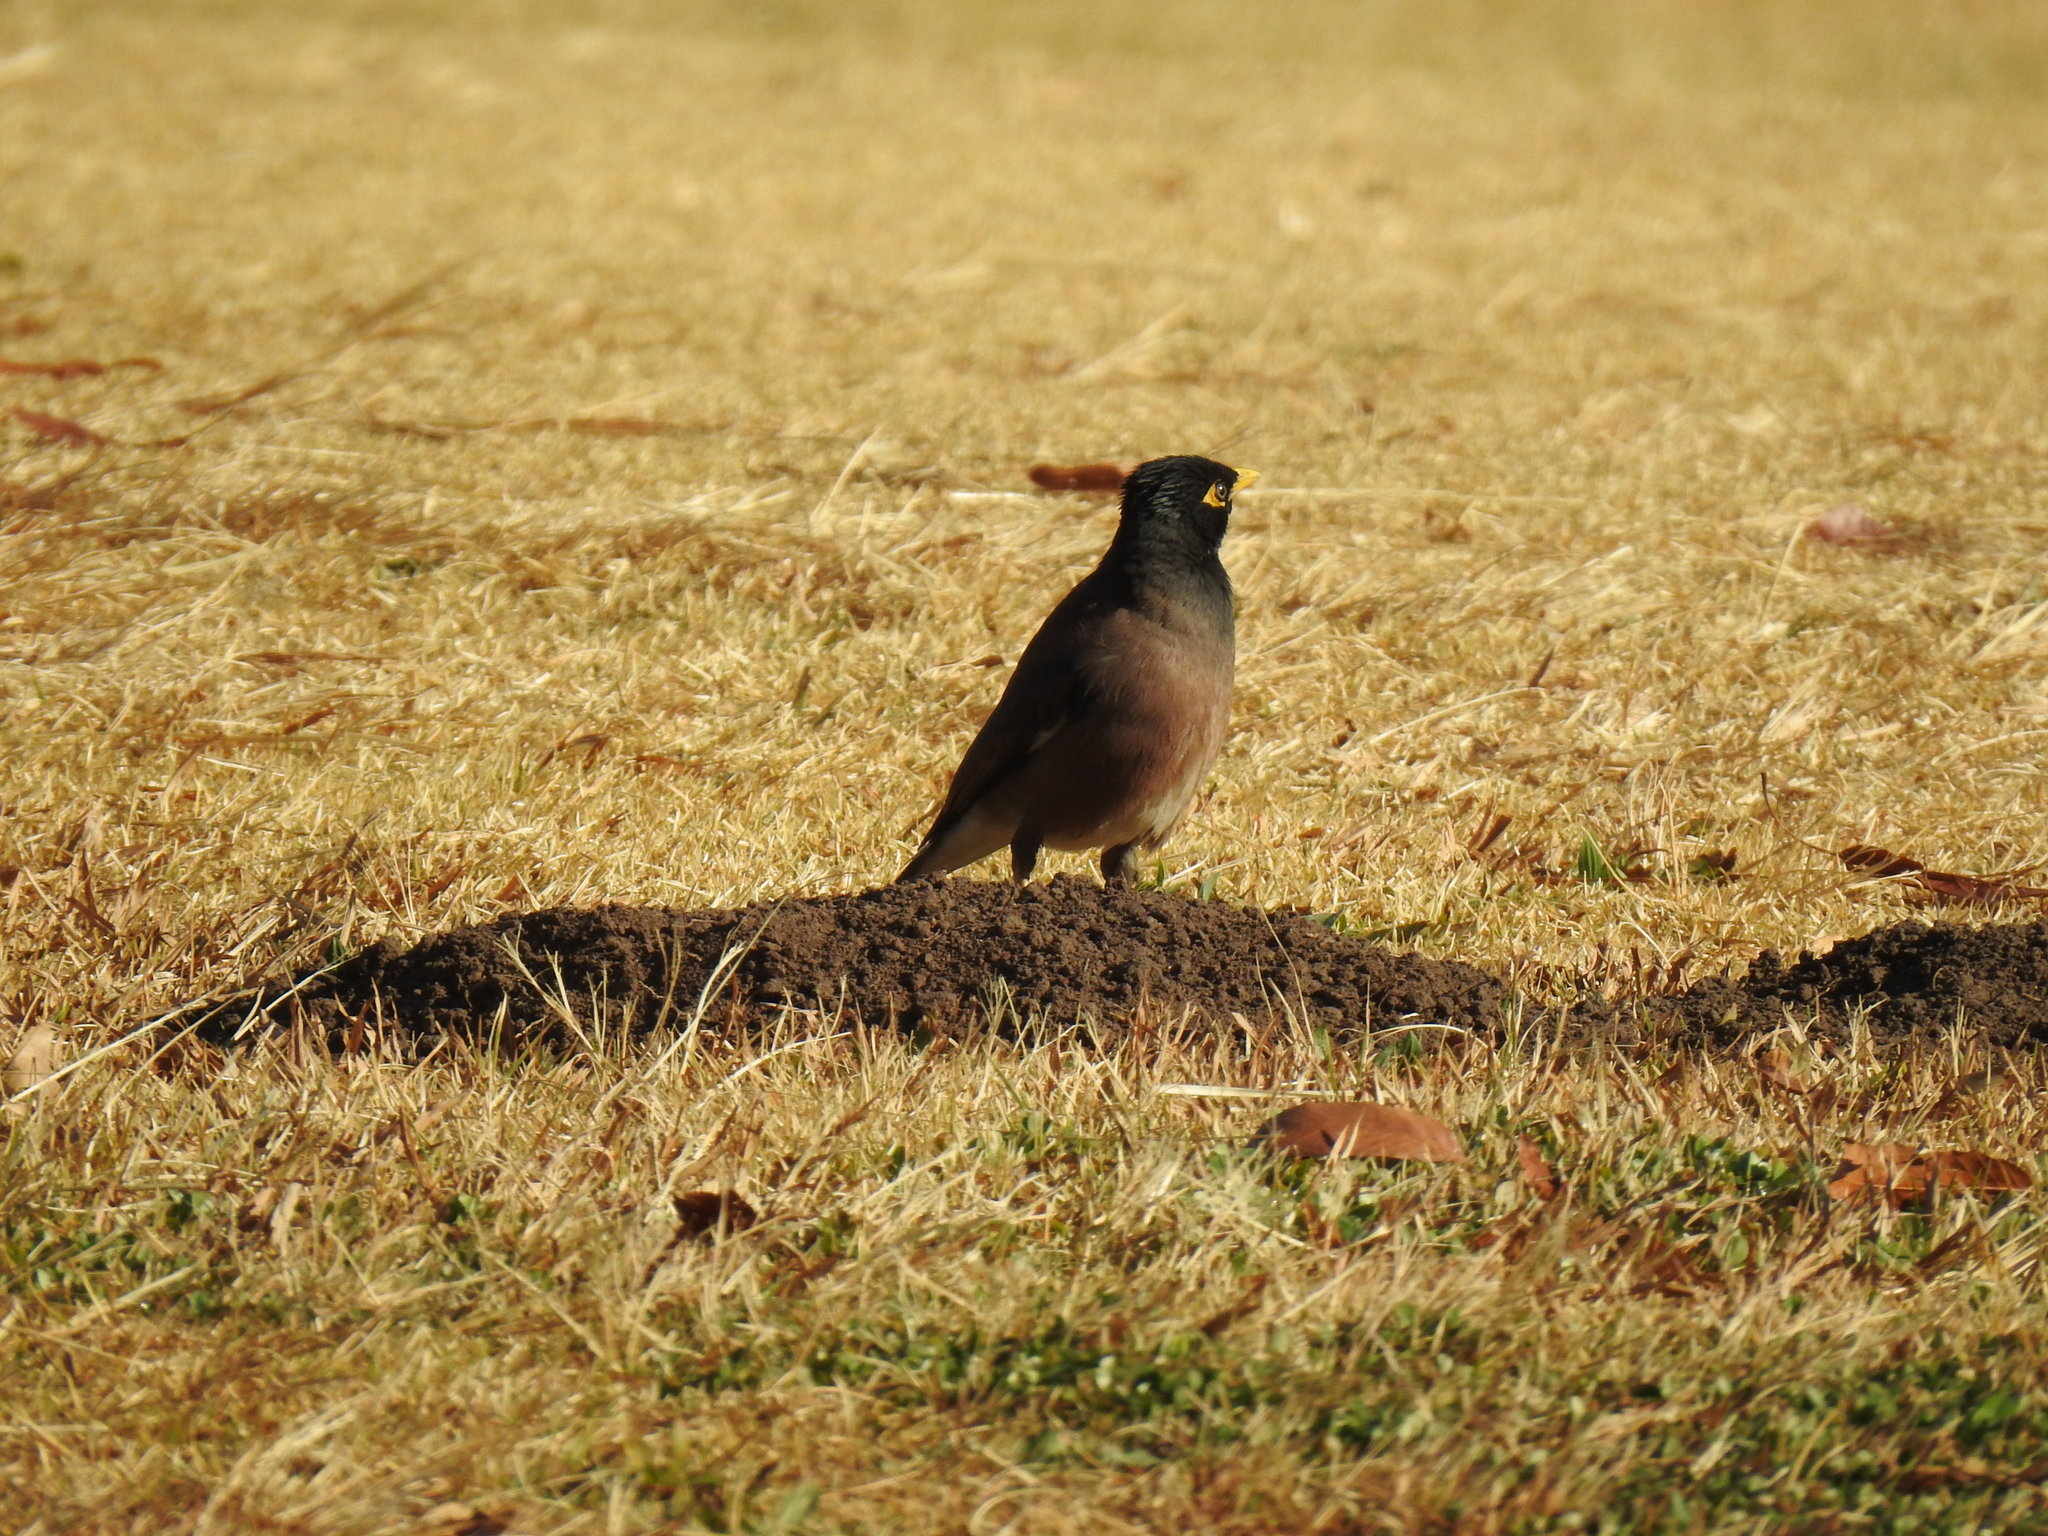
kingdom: Animalia
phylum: Chordata
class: Aves
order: Passeriformes
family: Sturnidae
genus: Acridotheres
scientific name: Acridotheres tristis
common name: Common myna
